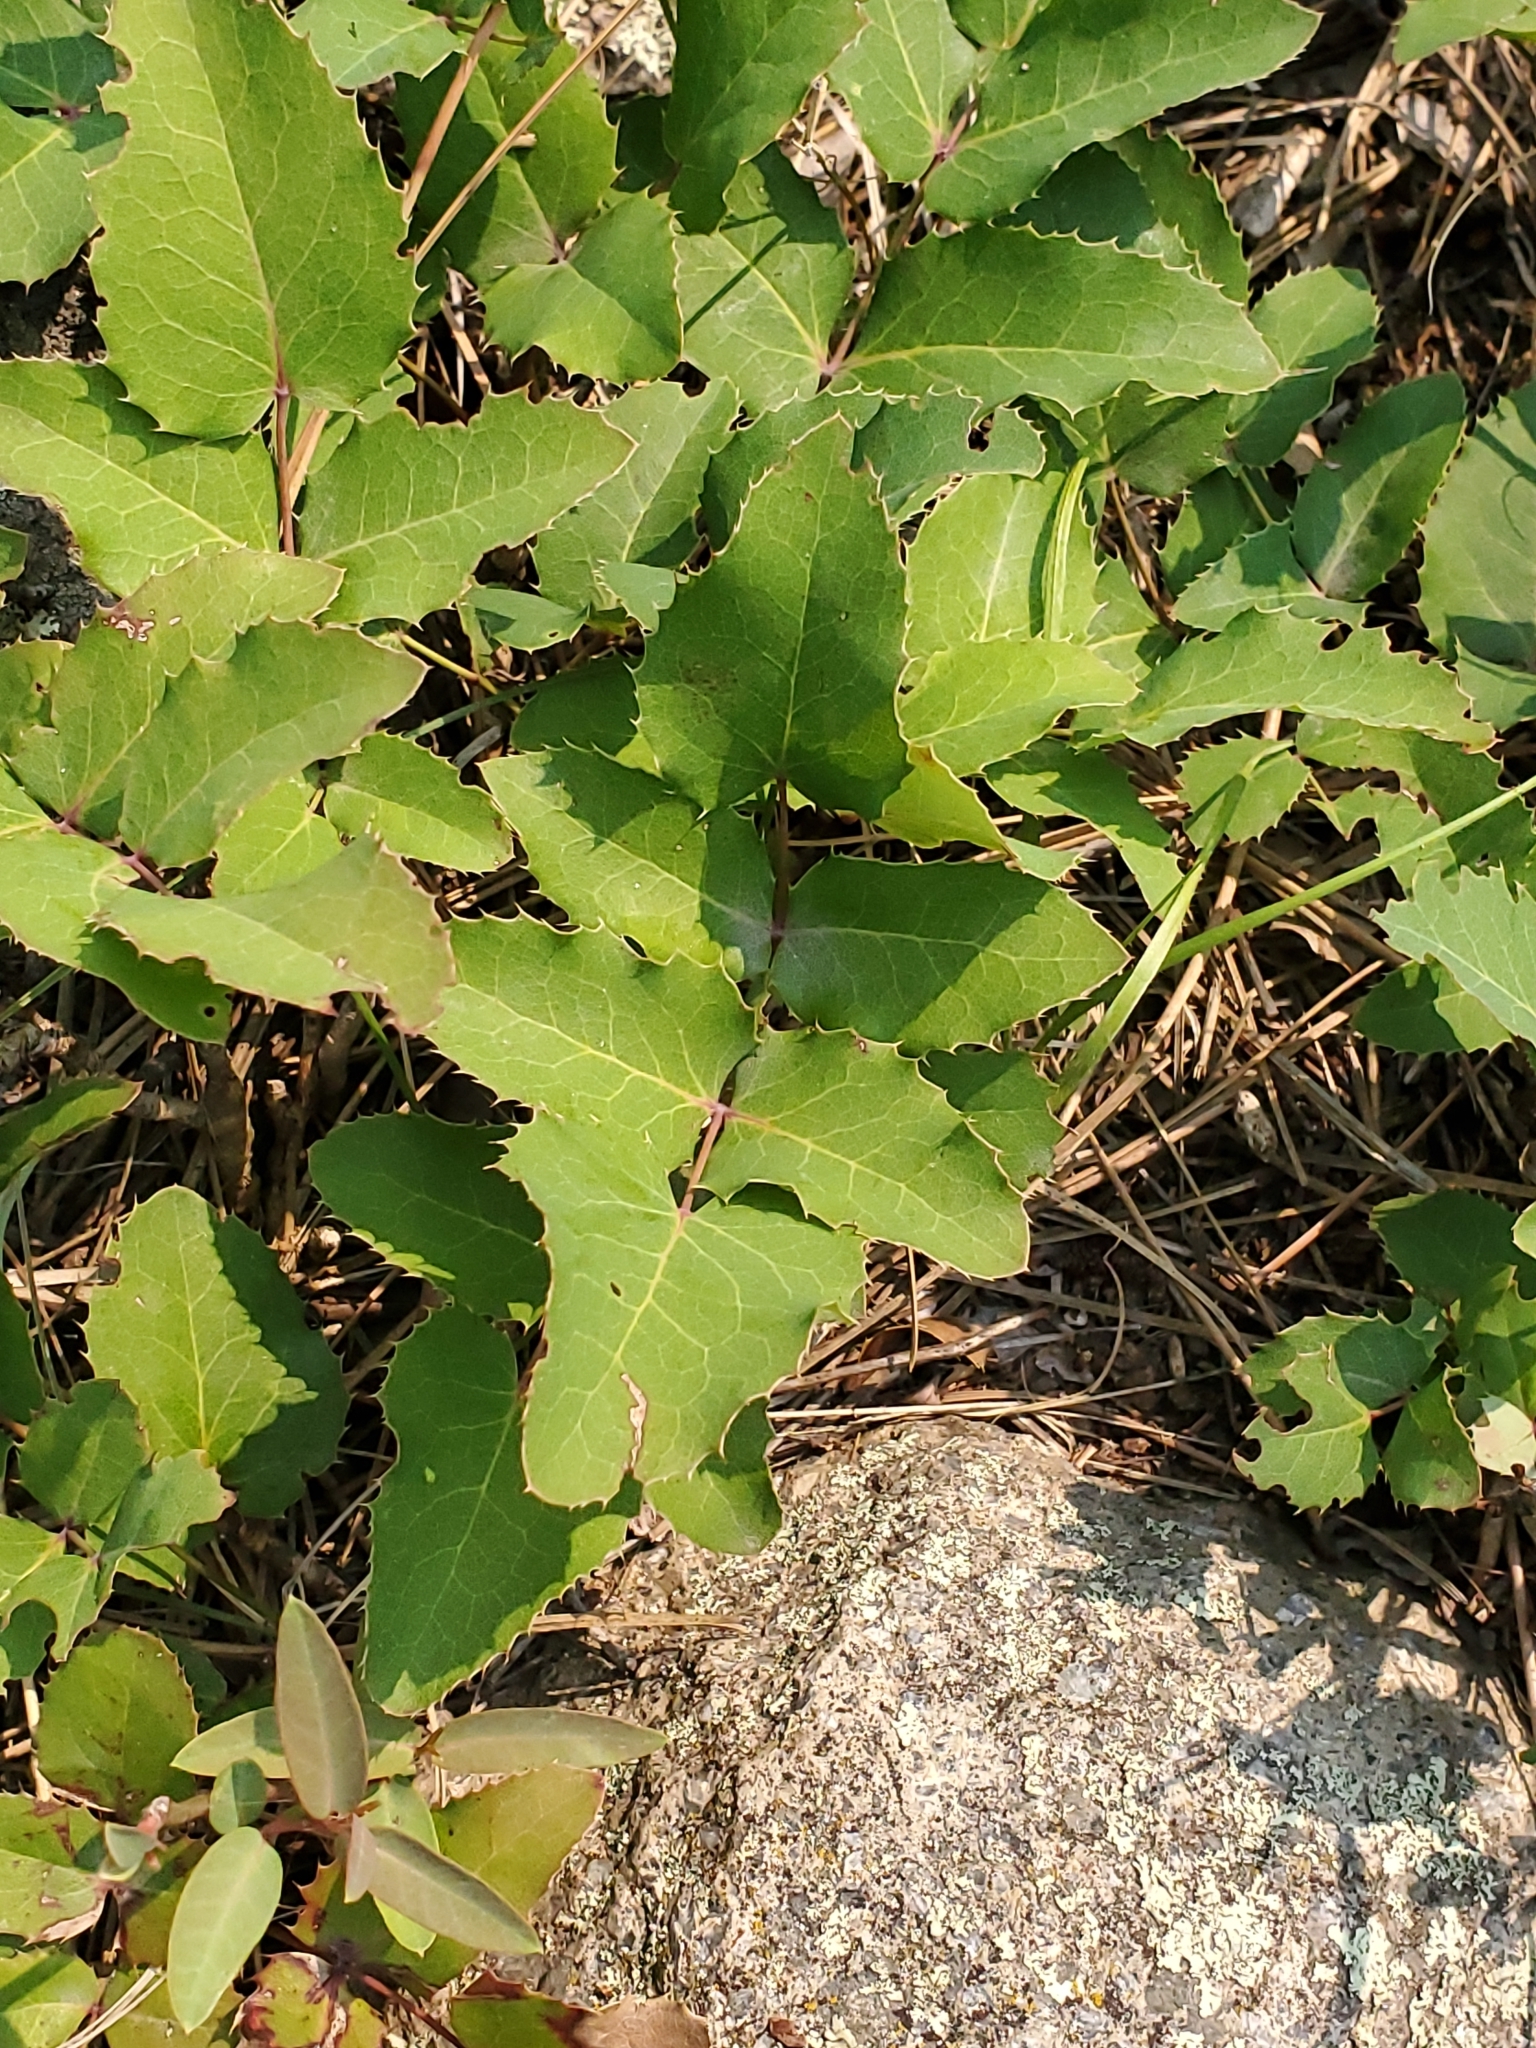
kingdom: Plantae
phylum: Tracheophyta
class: Magnoliopsida
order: Ranunculales
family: Berberidaceae
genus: Mahonia
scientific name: Mahonia repens
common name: Creeping oregon-grape
